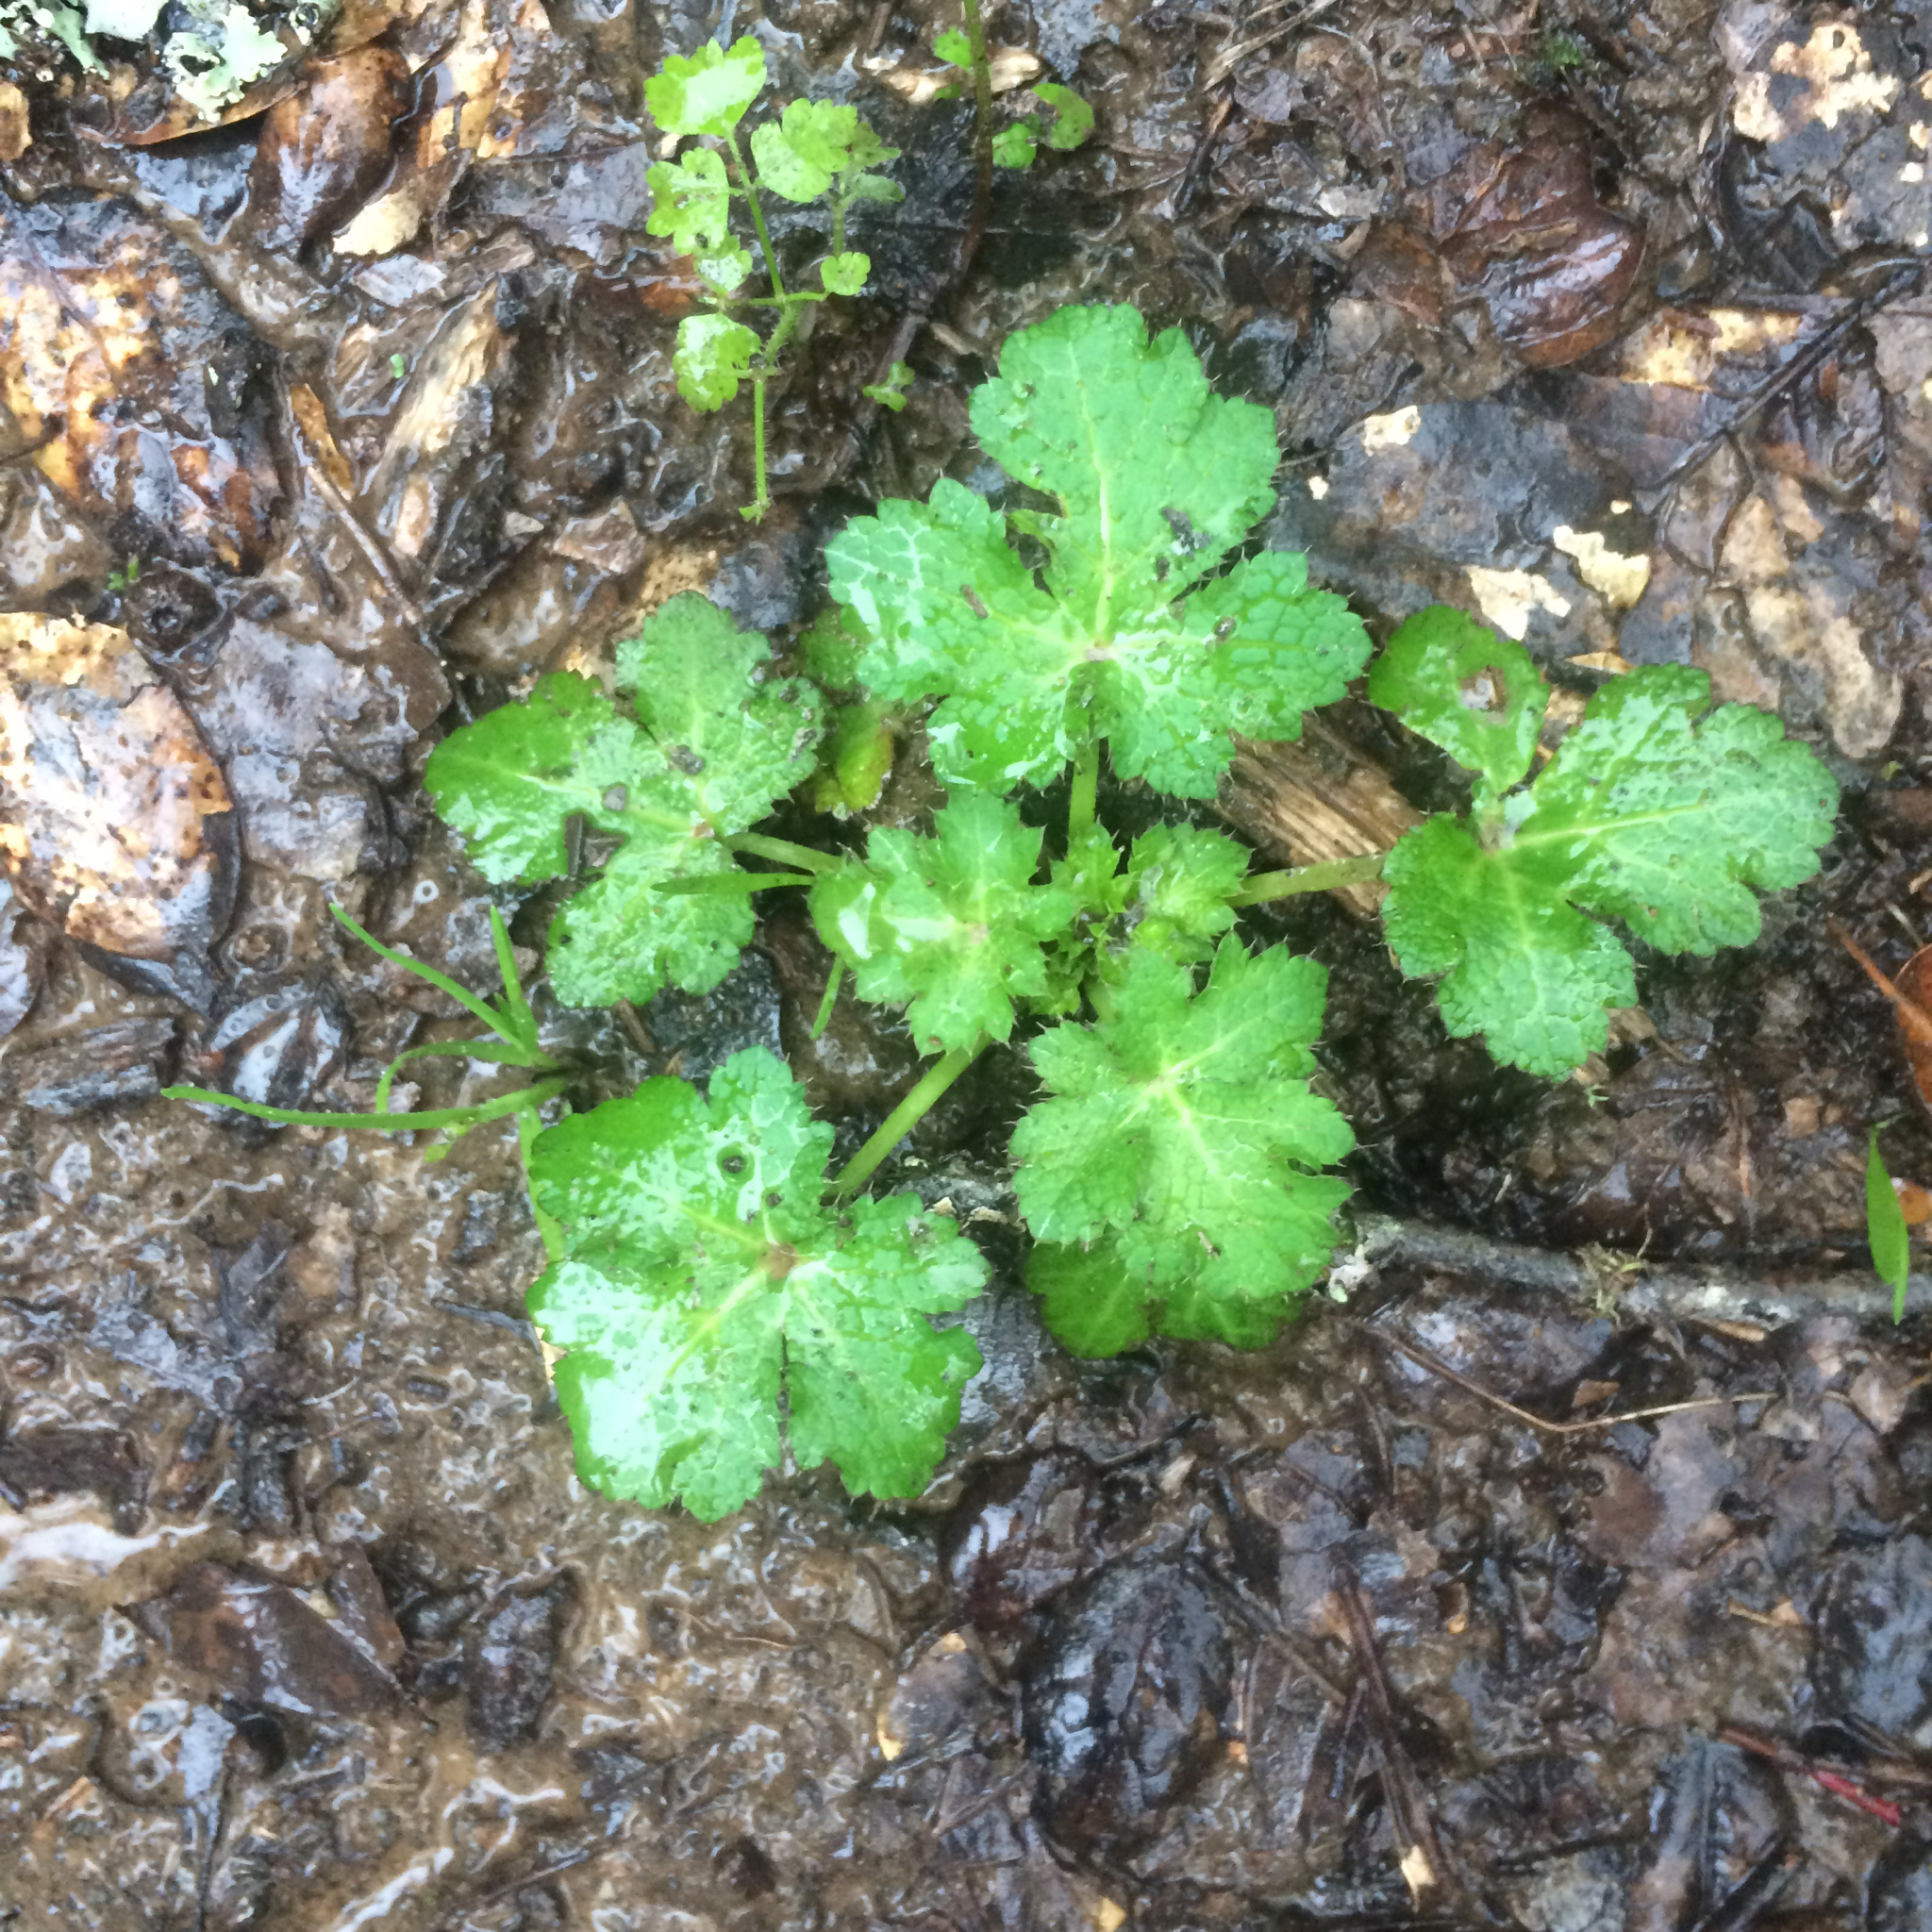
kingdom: Plantae
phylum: Tracheophyta
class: Magnoliopsida
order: Apiales
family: Apiaceae
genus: Sanicula
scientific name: Sanicula crassicaulis
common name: Western snakeroot
